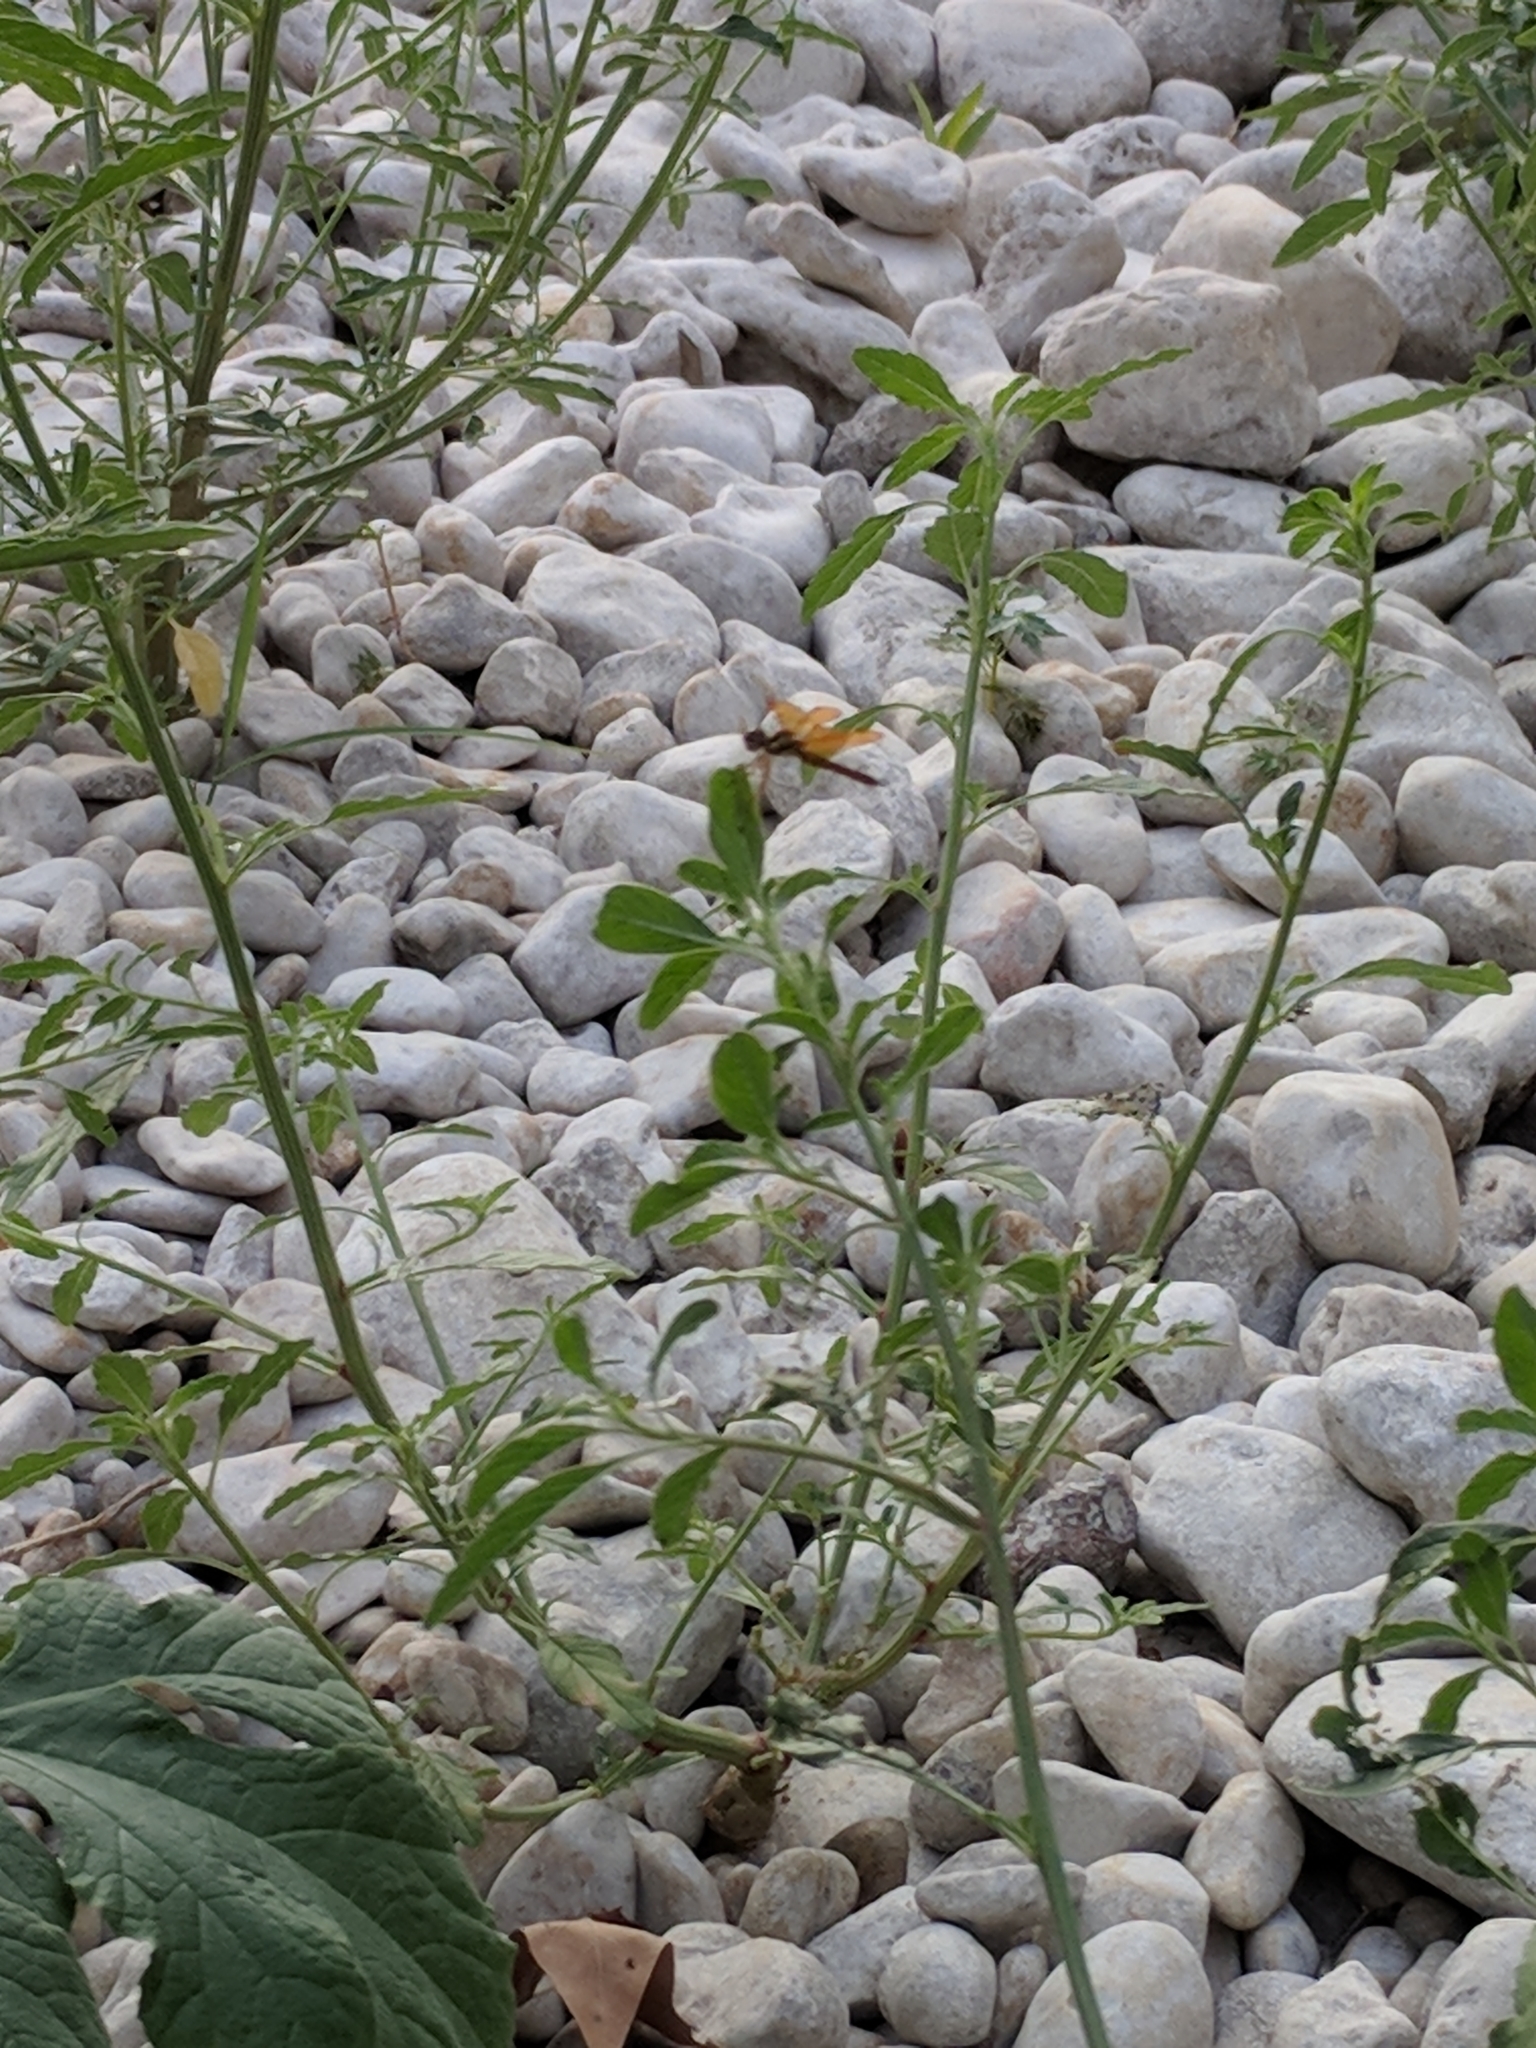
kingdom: Animalia
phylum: Arthropoda
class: Insecta
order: Odonata
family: Libellulidae
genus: Perithemis
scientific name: Perithemis tenera
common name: Eastern amberwing
